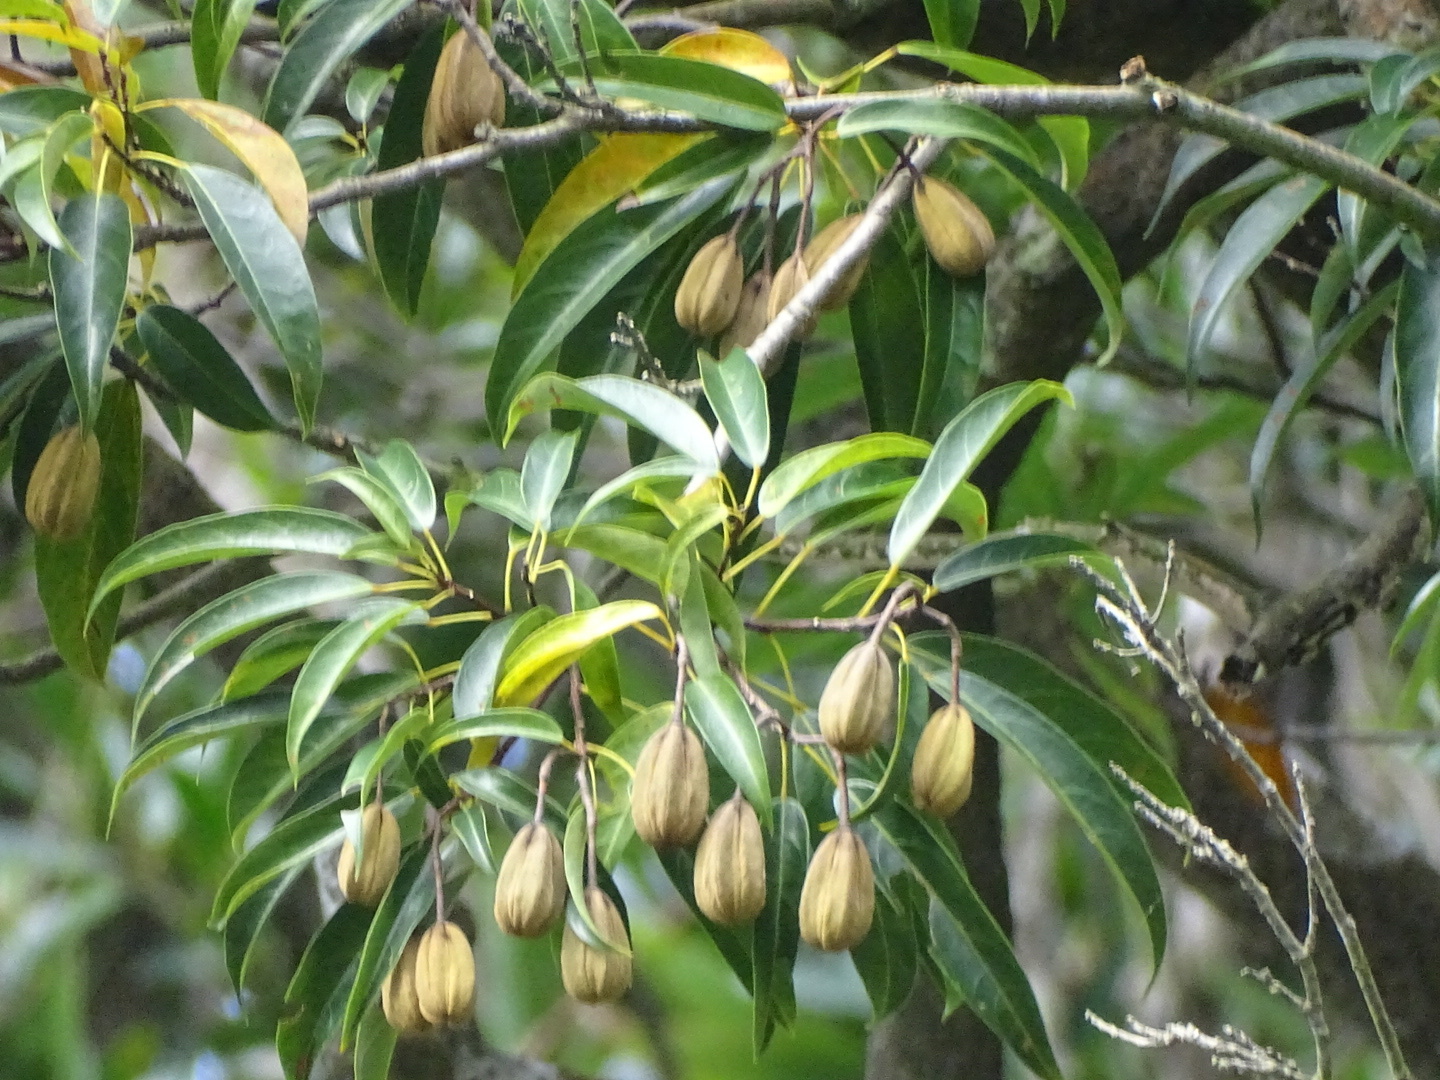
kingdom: Plantae
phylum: Tracheophyta
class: Magnoliopsida
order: Malvales
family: Malvaceae
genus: Reevesia
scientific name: Reevesia thyrsoidea
